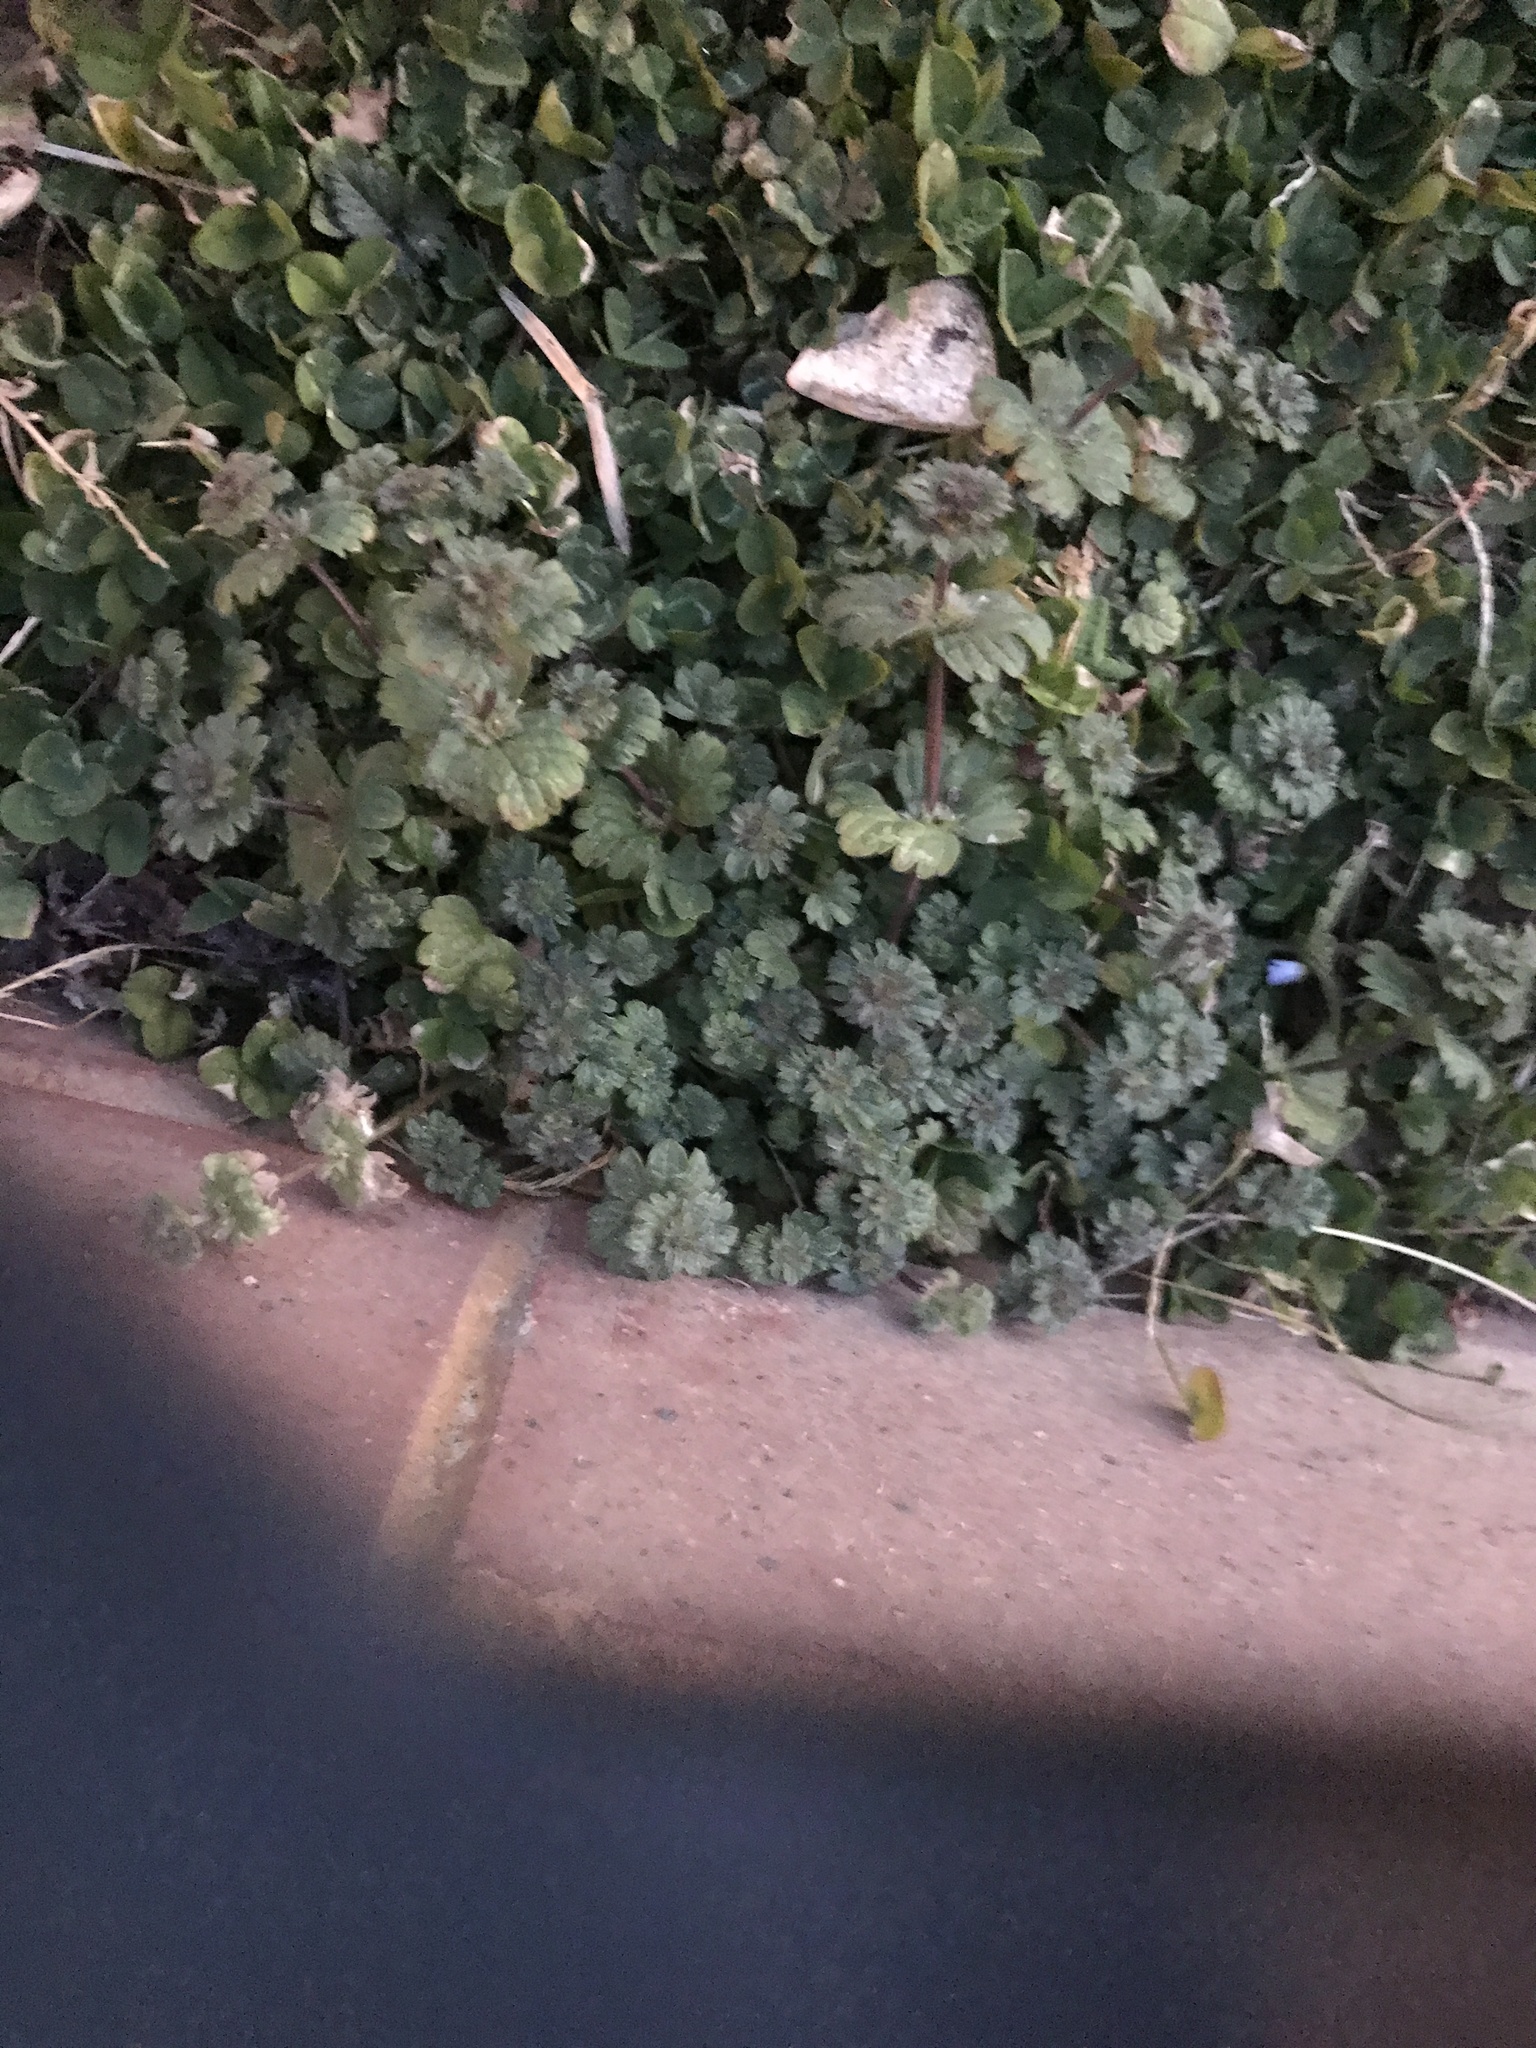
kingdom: Plantae
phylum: Tracheophyta
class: Magnoliopsida
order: Lamiales
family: Lamiaceae
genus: Lamium
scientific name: Lamium amplexicaule
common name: Henbit dead-nettle
